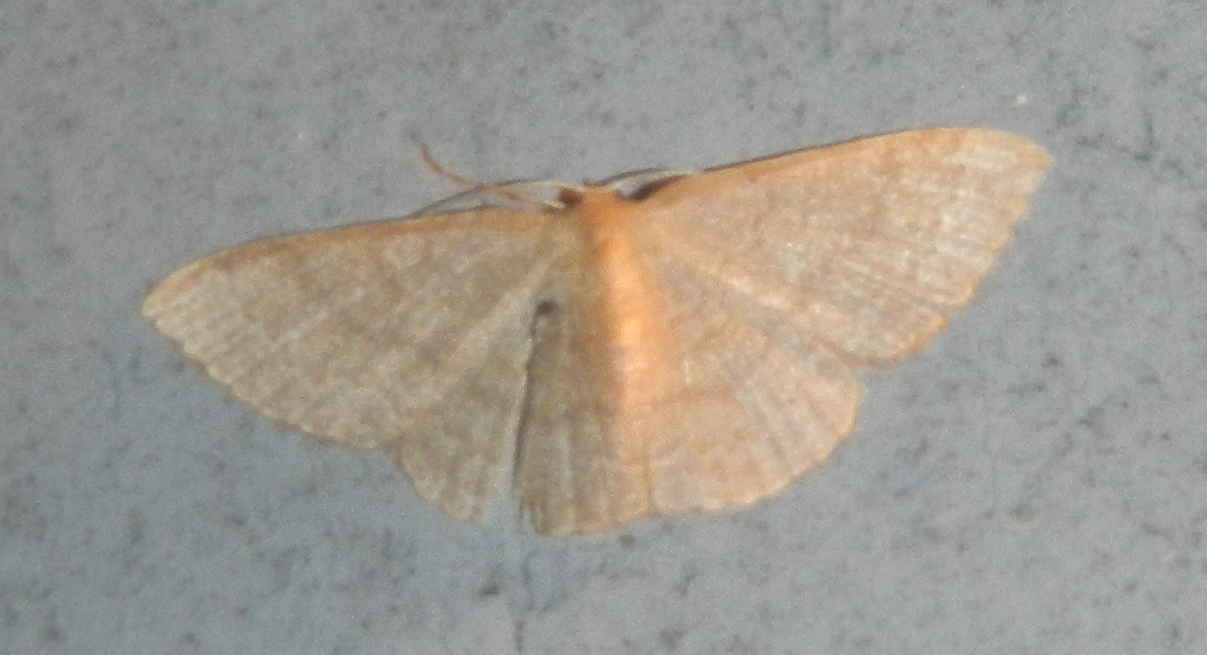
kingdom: Animalia
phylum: Arthropoda
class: Insecta
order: Lepidoptera
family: Geometridae
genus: Pleuroprucha
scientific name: Pleuroprucha insulsaria
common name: Common tan wave
